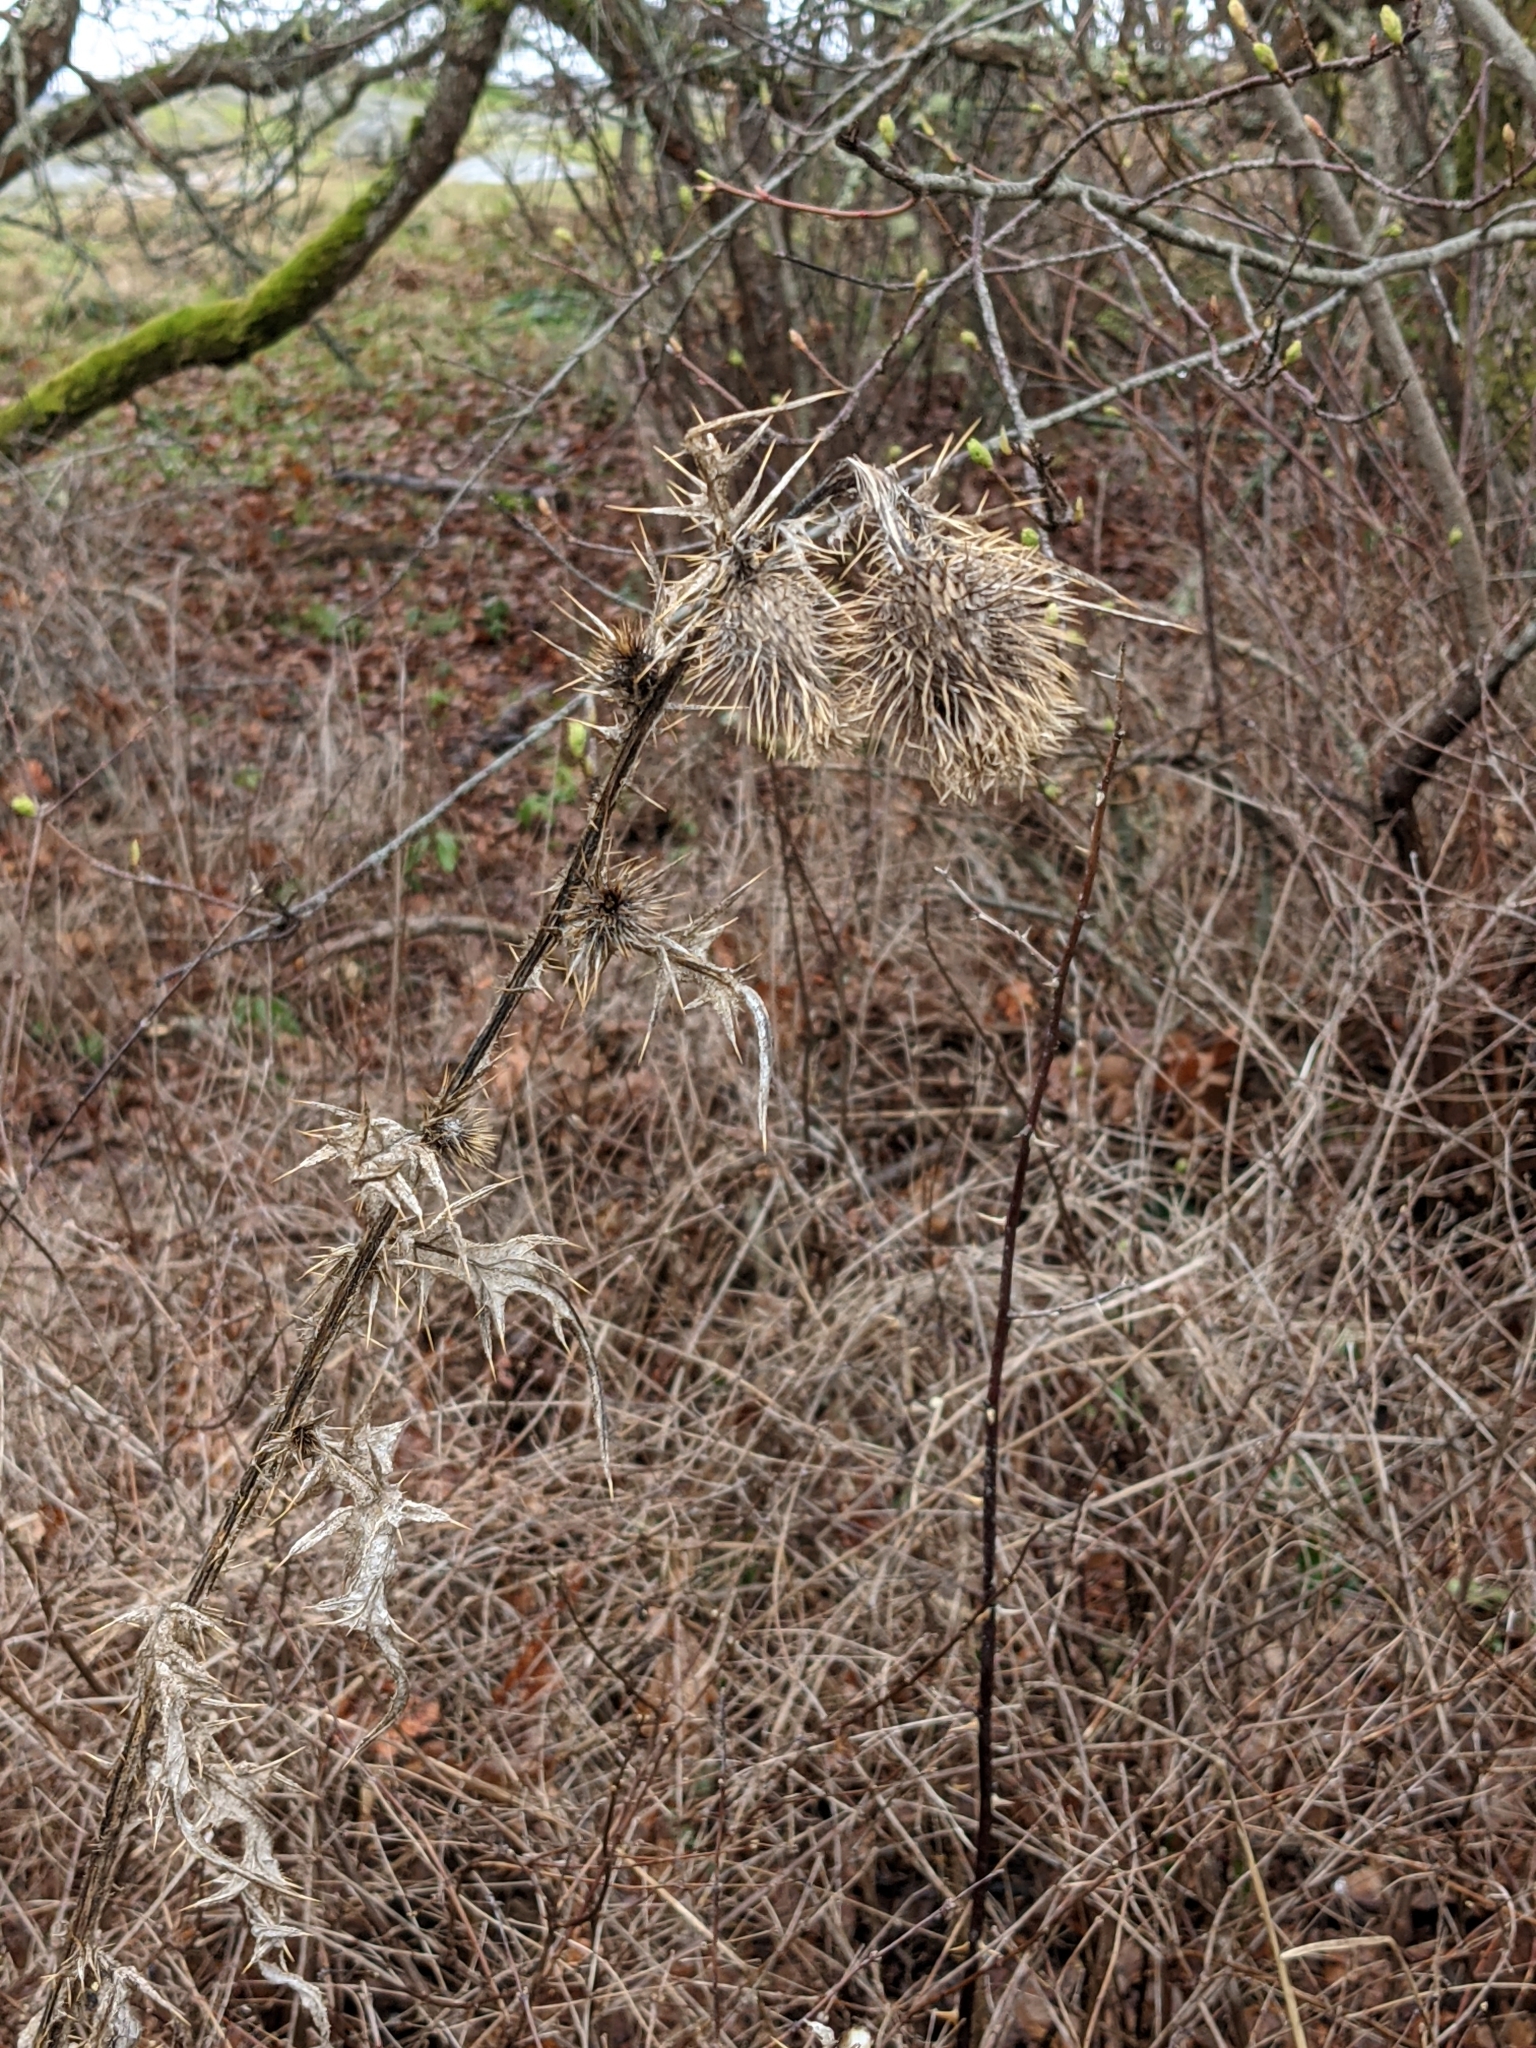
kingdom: Plantae
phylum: Tracheophyta
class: Magnoliopsida
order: Asterales
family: Asteraceae
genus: Cirsium
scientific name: Cirsium vulgare
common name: Bull thistle
